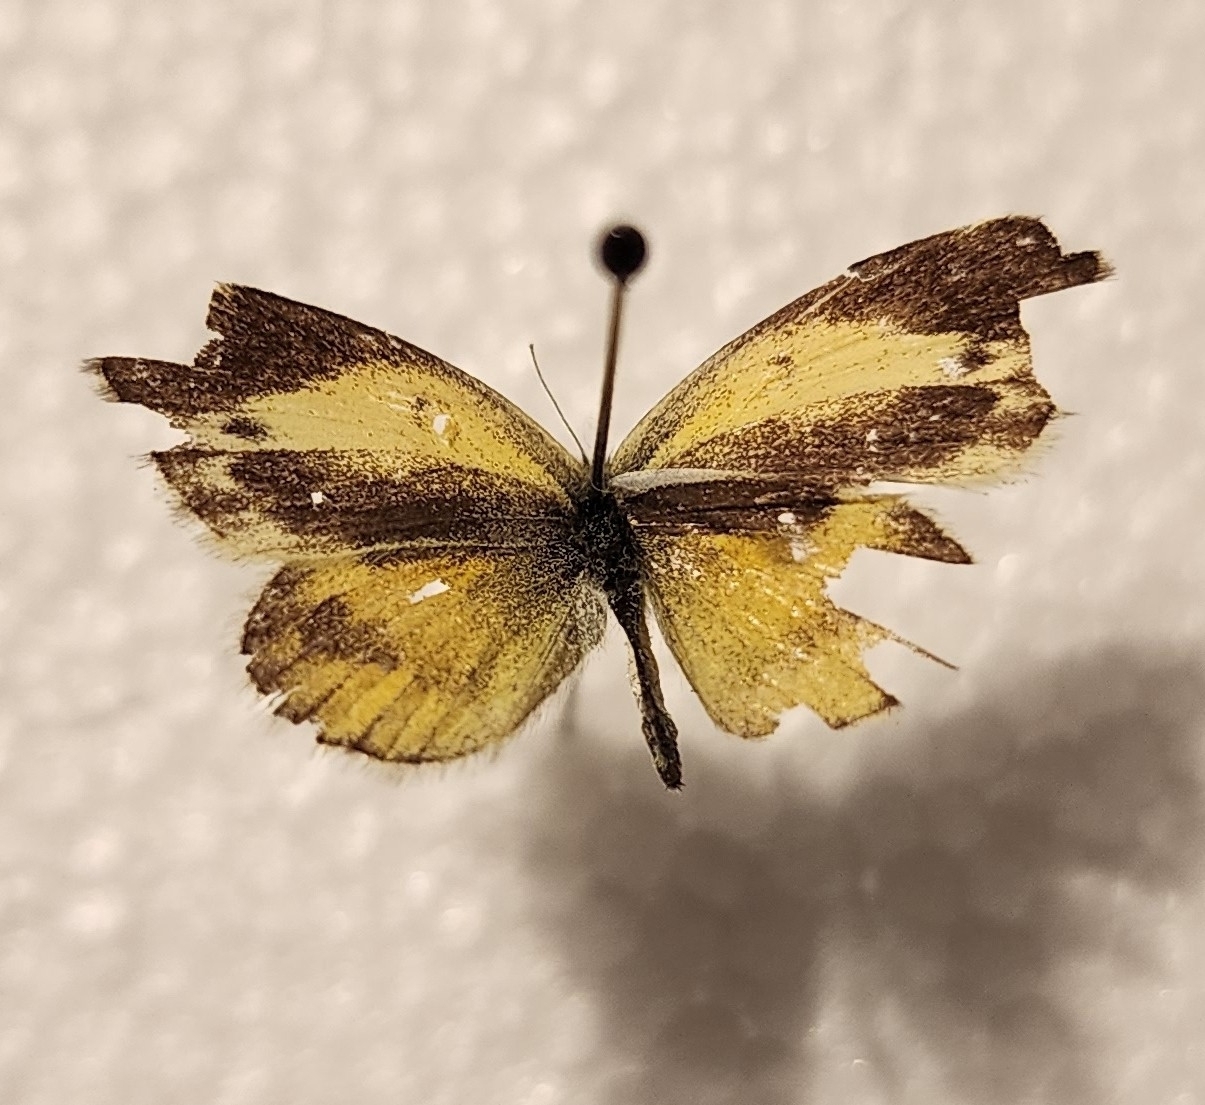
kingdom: Animalia
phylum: Arthropoda
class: Insecta
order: Lepidoptera
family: Pieridae
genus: Nathalis
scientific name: Nathalis iole
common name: Dainty sulphur
